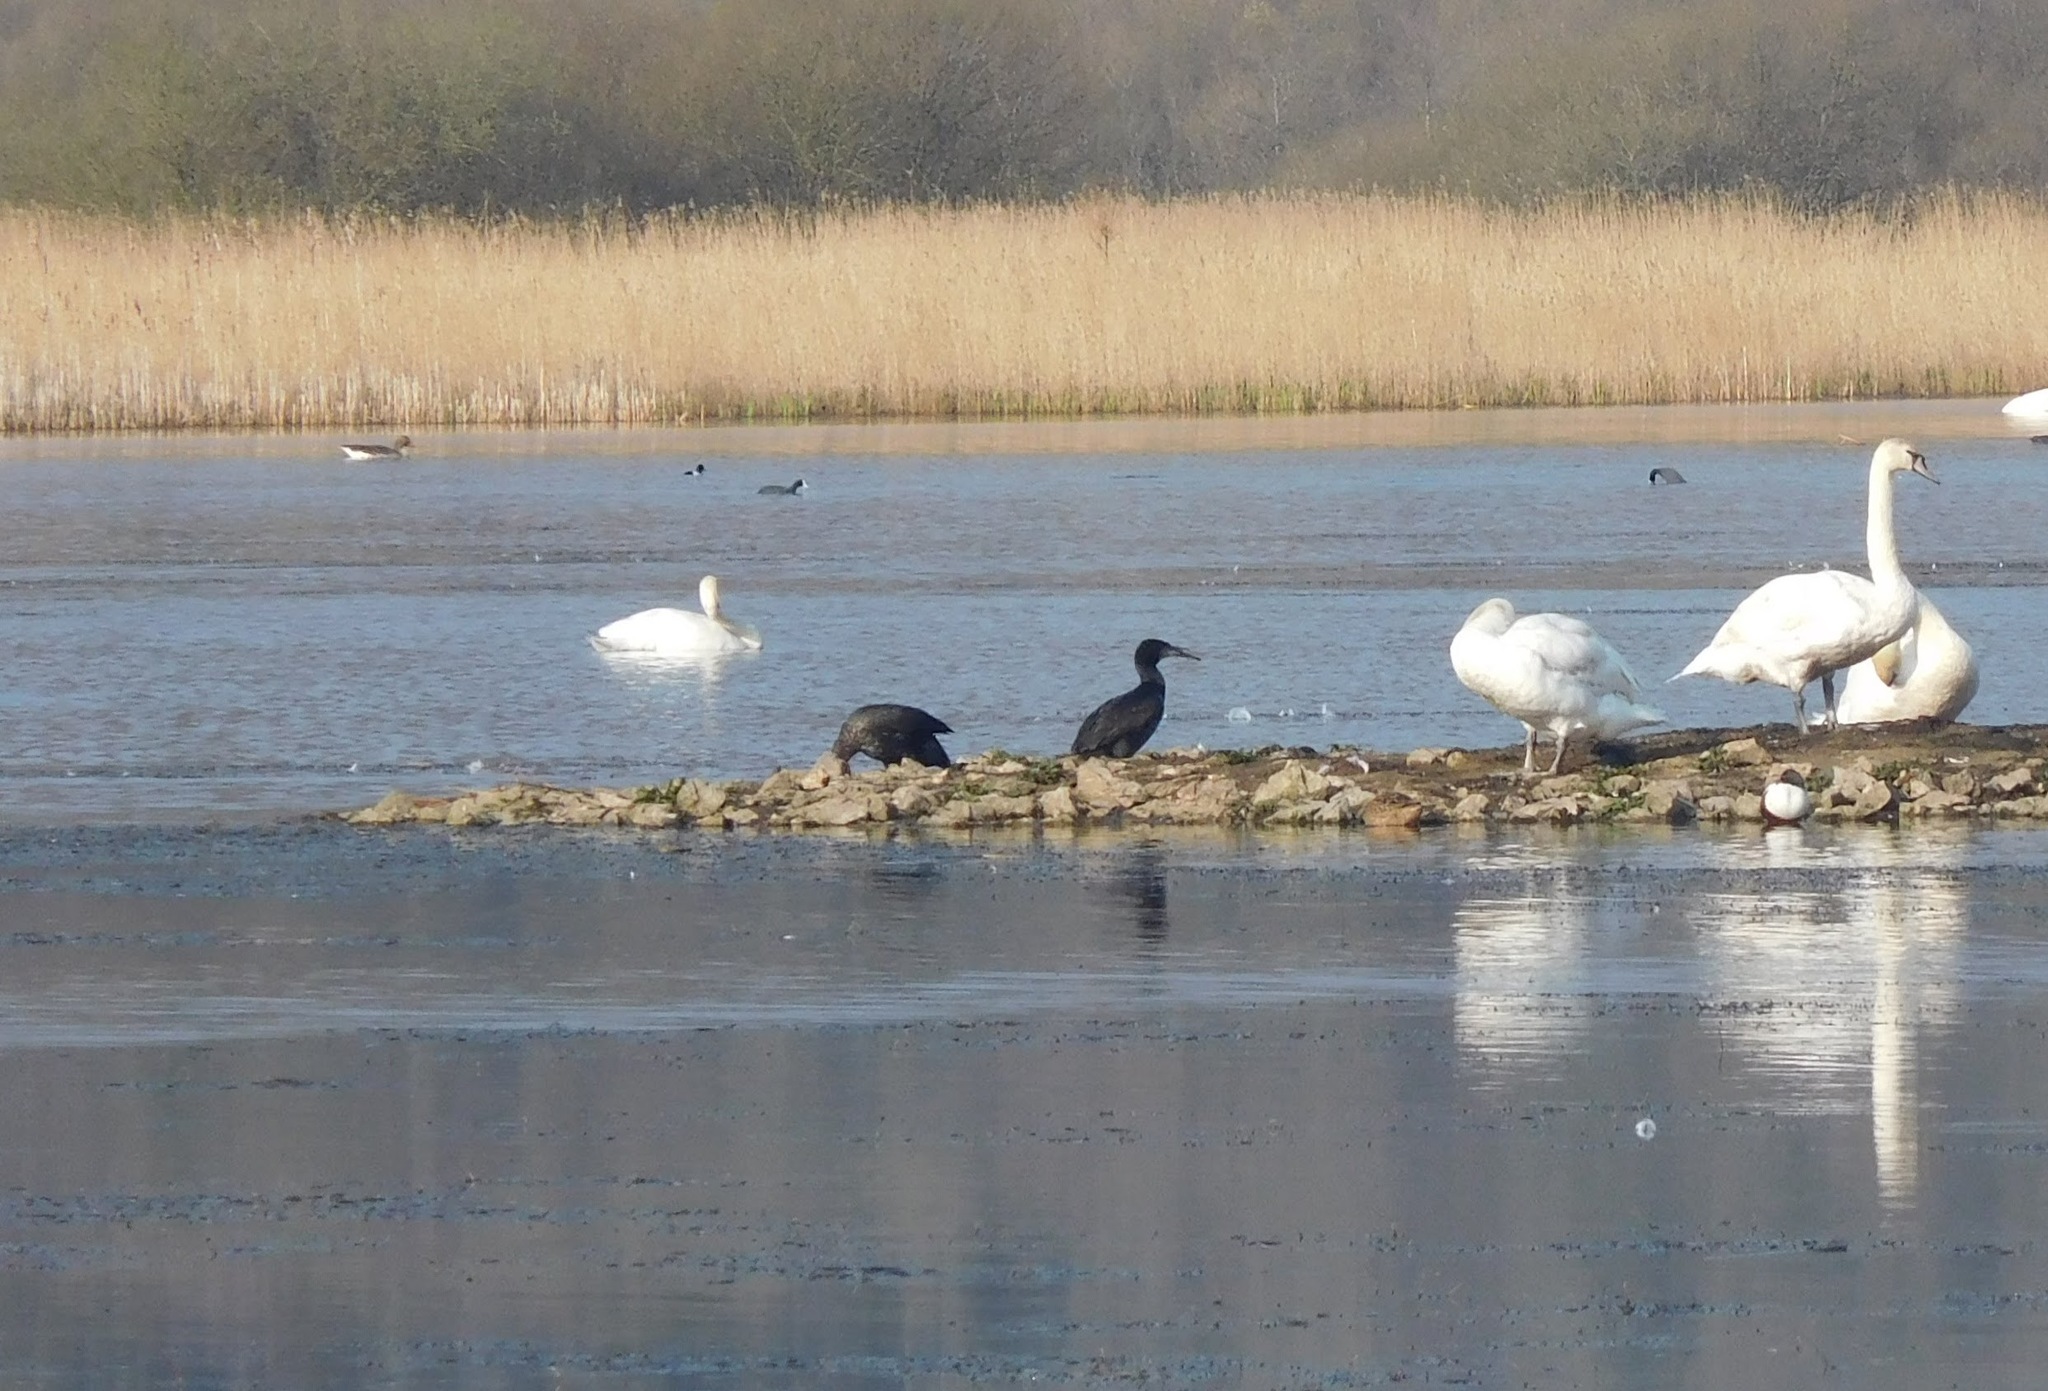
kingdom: Animalia
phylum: Chordata
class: Aves
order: Suliformes
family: Phalacrocoracidae
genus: Phalacrocorax
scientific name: Phalacrocorax carbo
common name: Great cormorant
